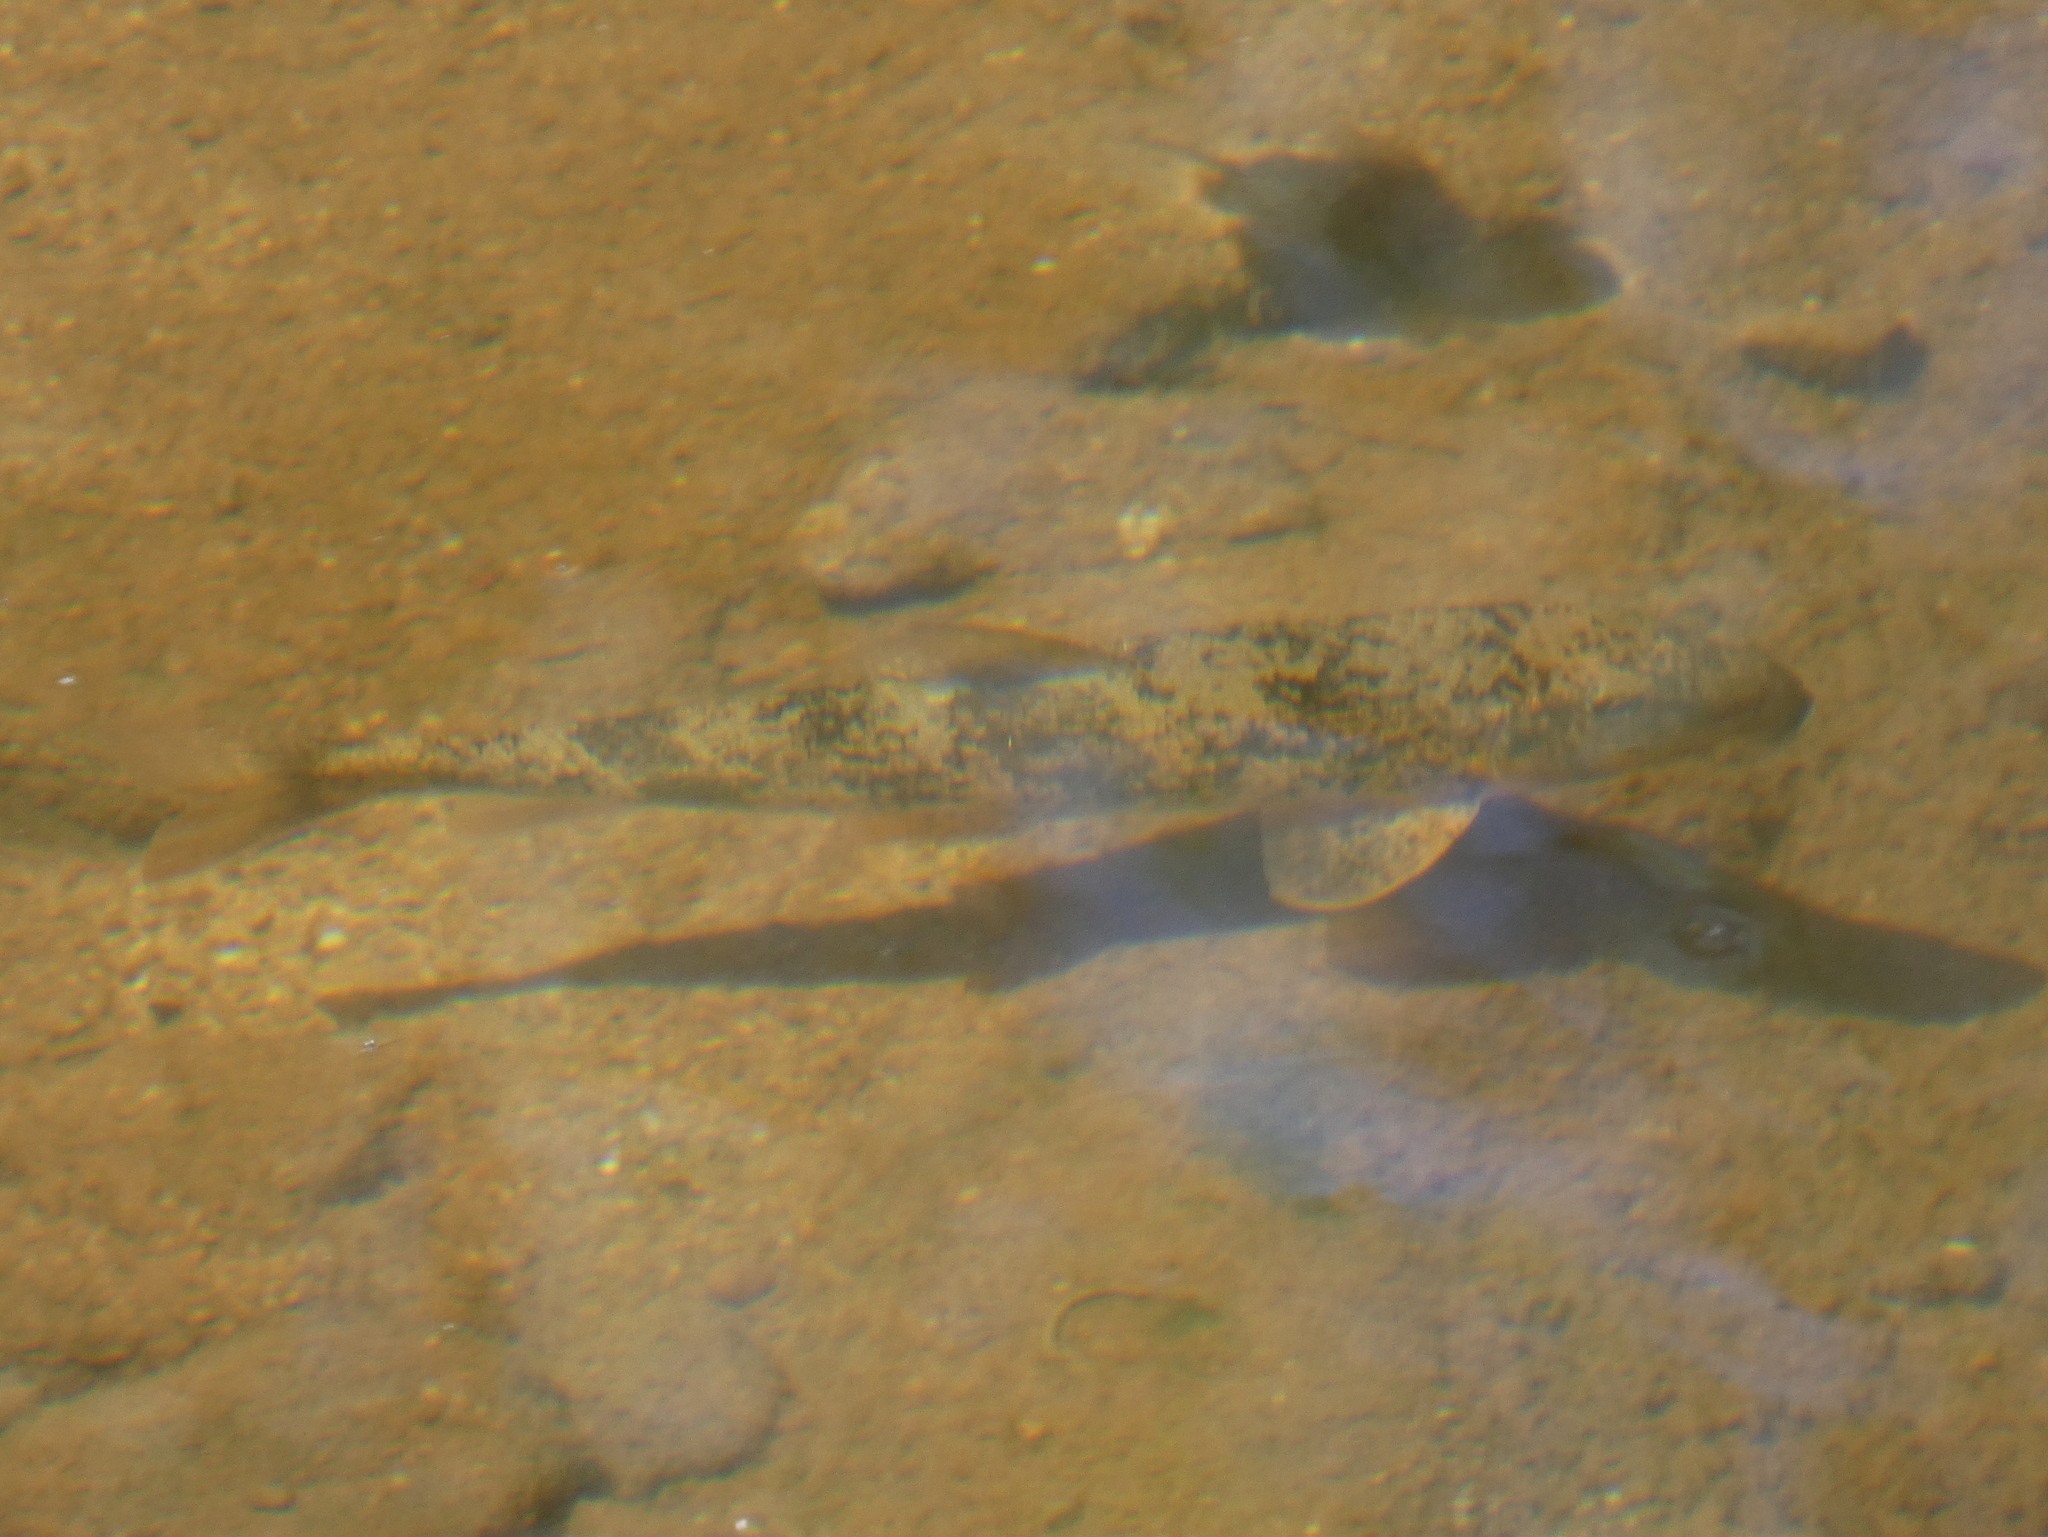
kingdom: Animalia
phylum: Chordata
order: Cypriniformes
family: Catostomidae
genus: Hypentelium
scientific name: Hypentelium nigricans
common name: Northern hog sucker
